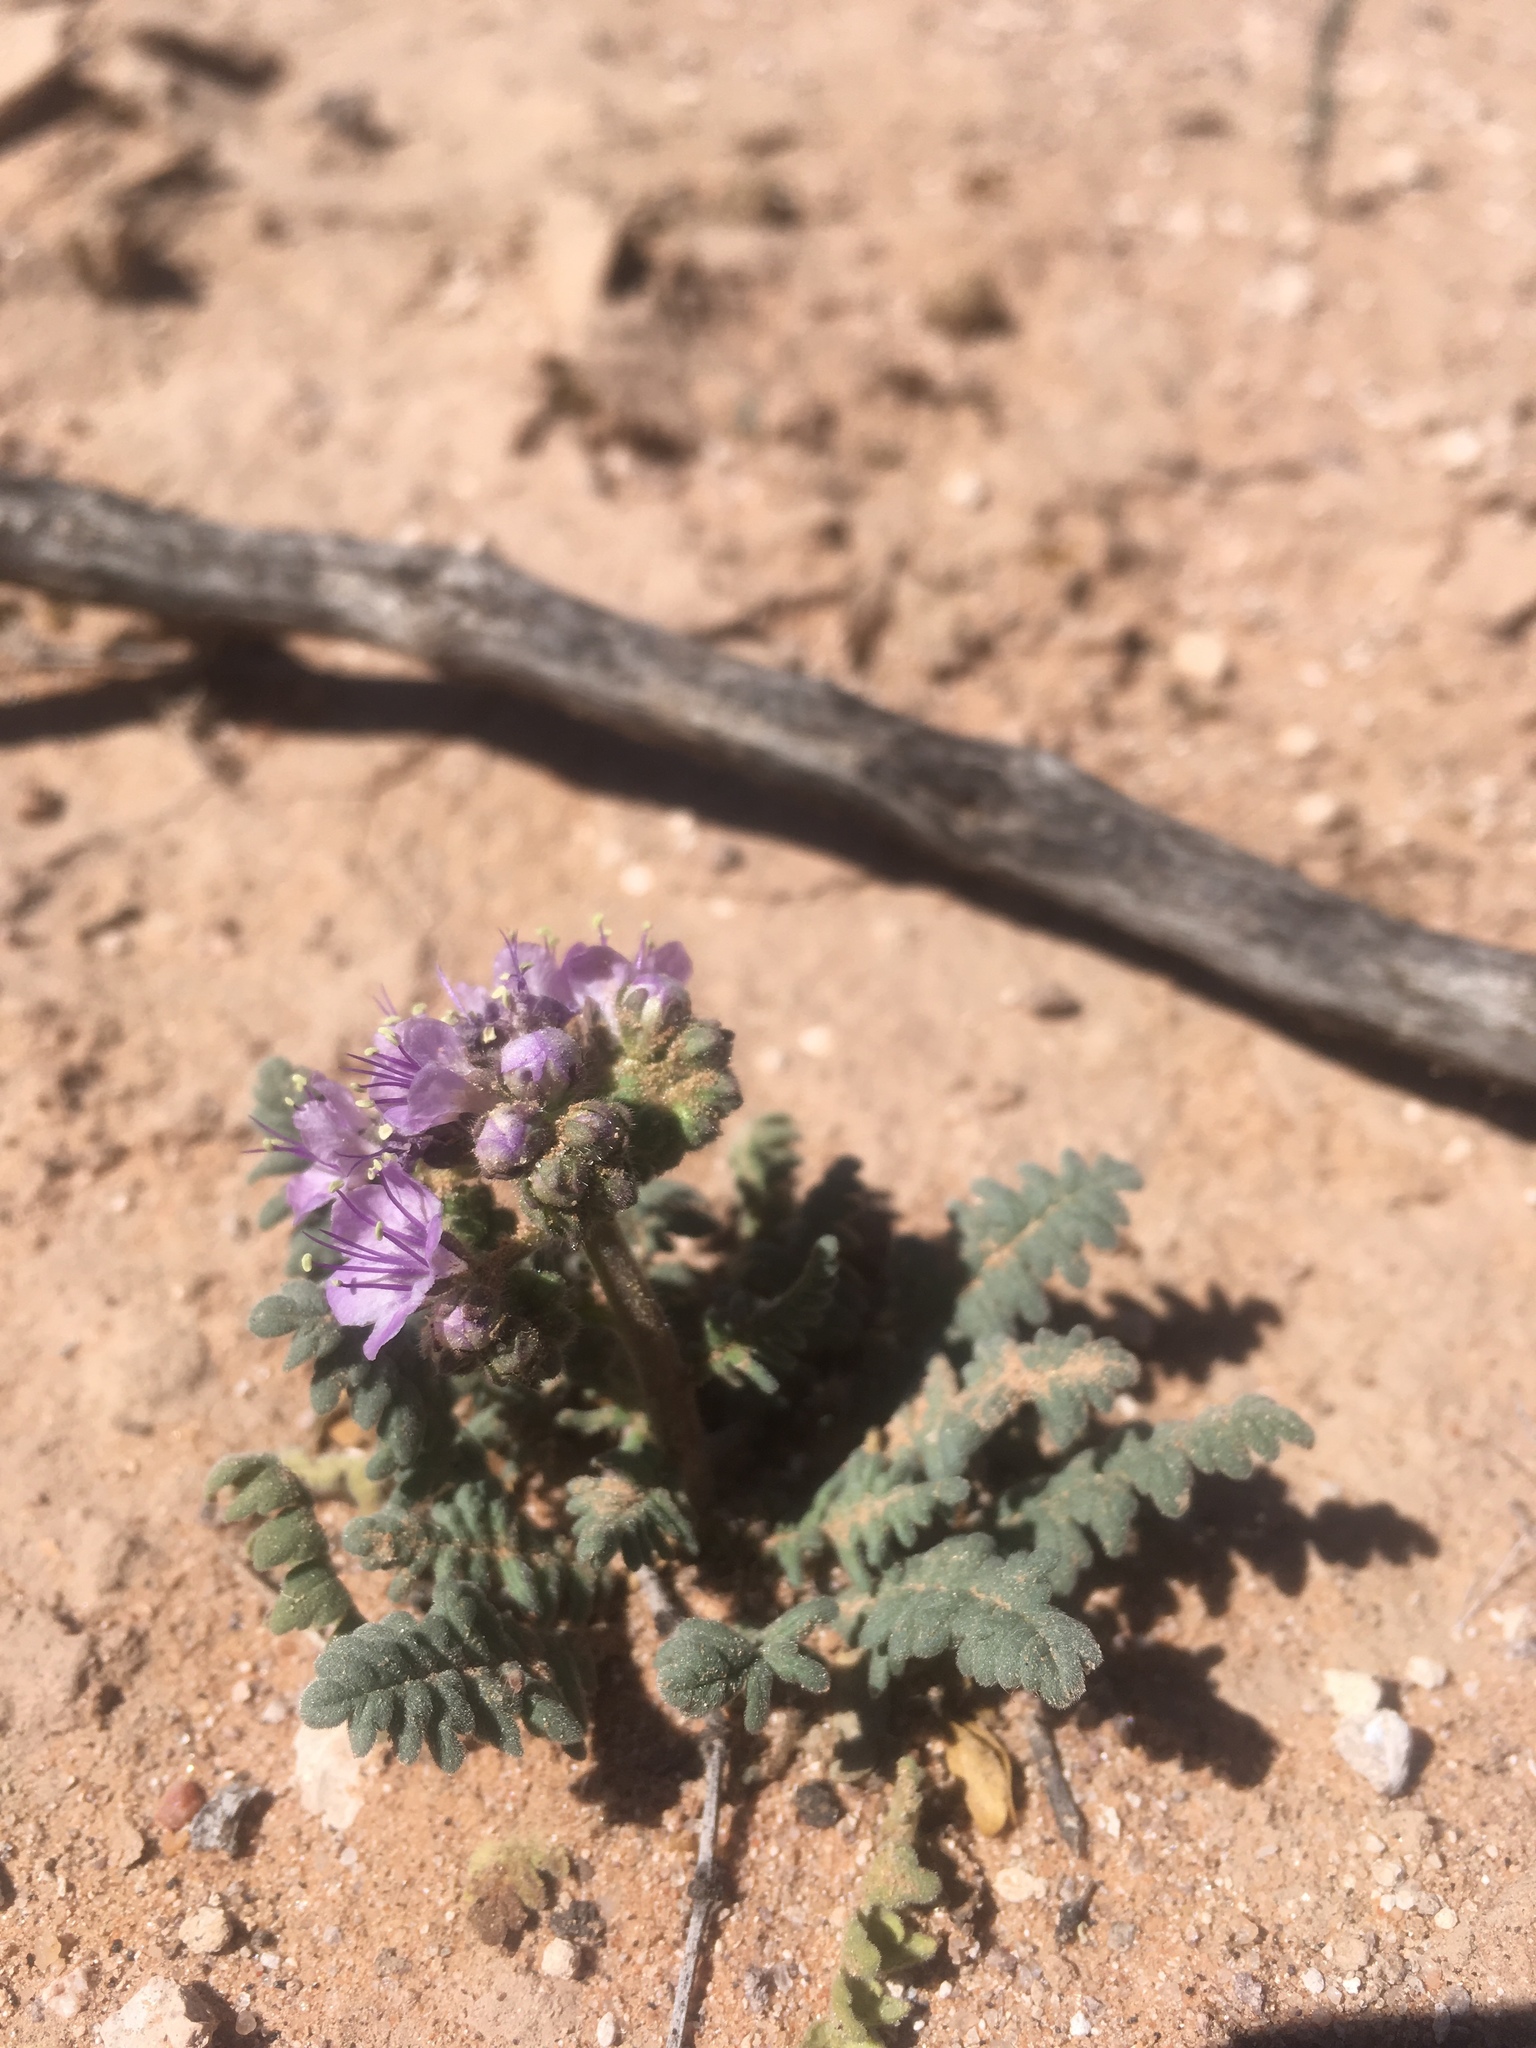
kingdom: Plantae
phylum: Tracheophyta
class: Magnoliopsida
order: Boraginales
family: Hydrophyllaceae
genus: Phacelia
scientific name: Phacelia popei
